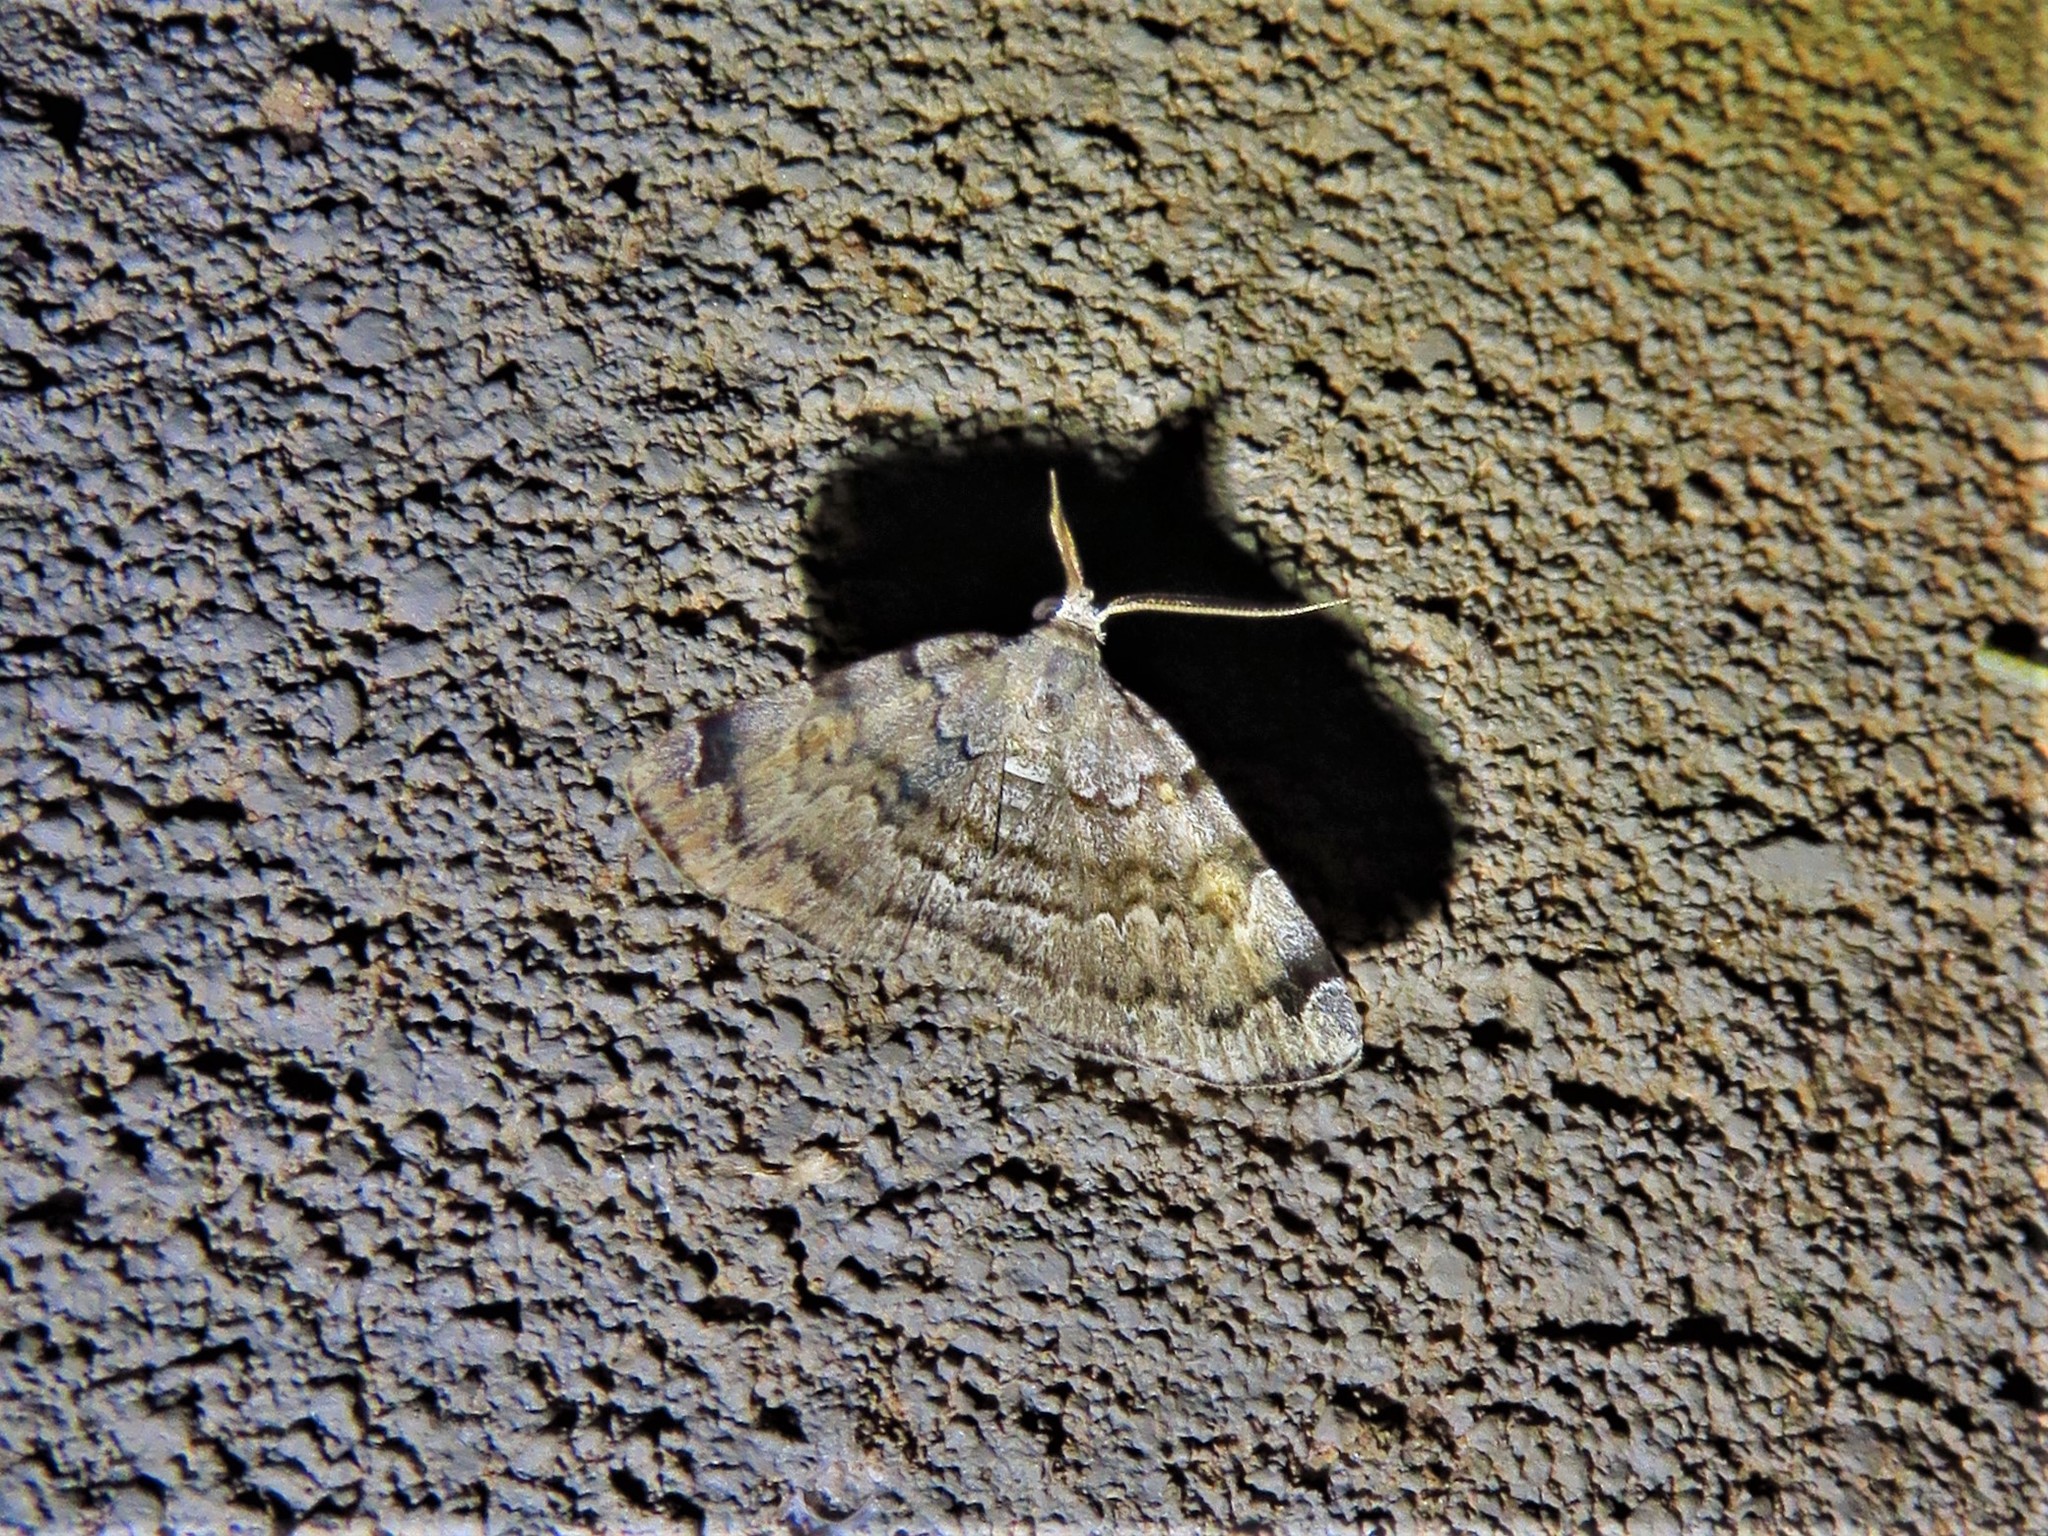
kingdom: Animalia
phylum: Arthropoda
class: Insecta
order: Lepidoptera
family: Erebidae
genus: Idia
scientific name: Idia americalis
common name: American idia moth
